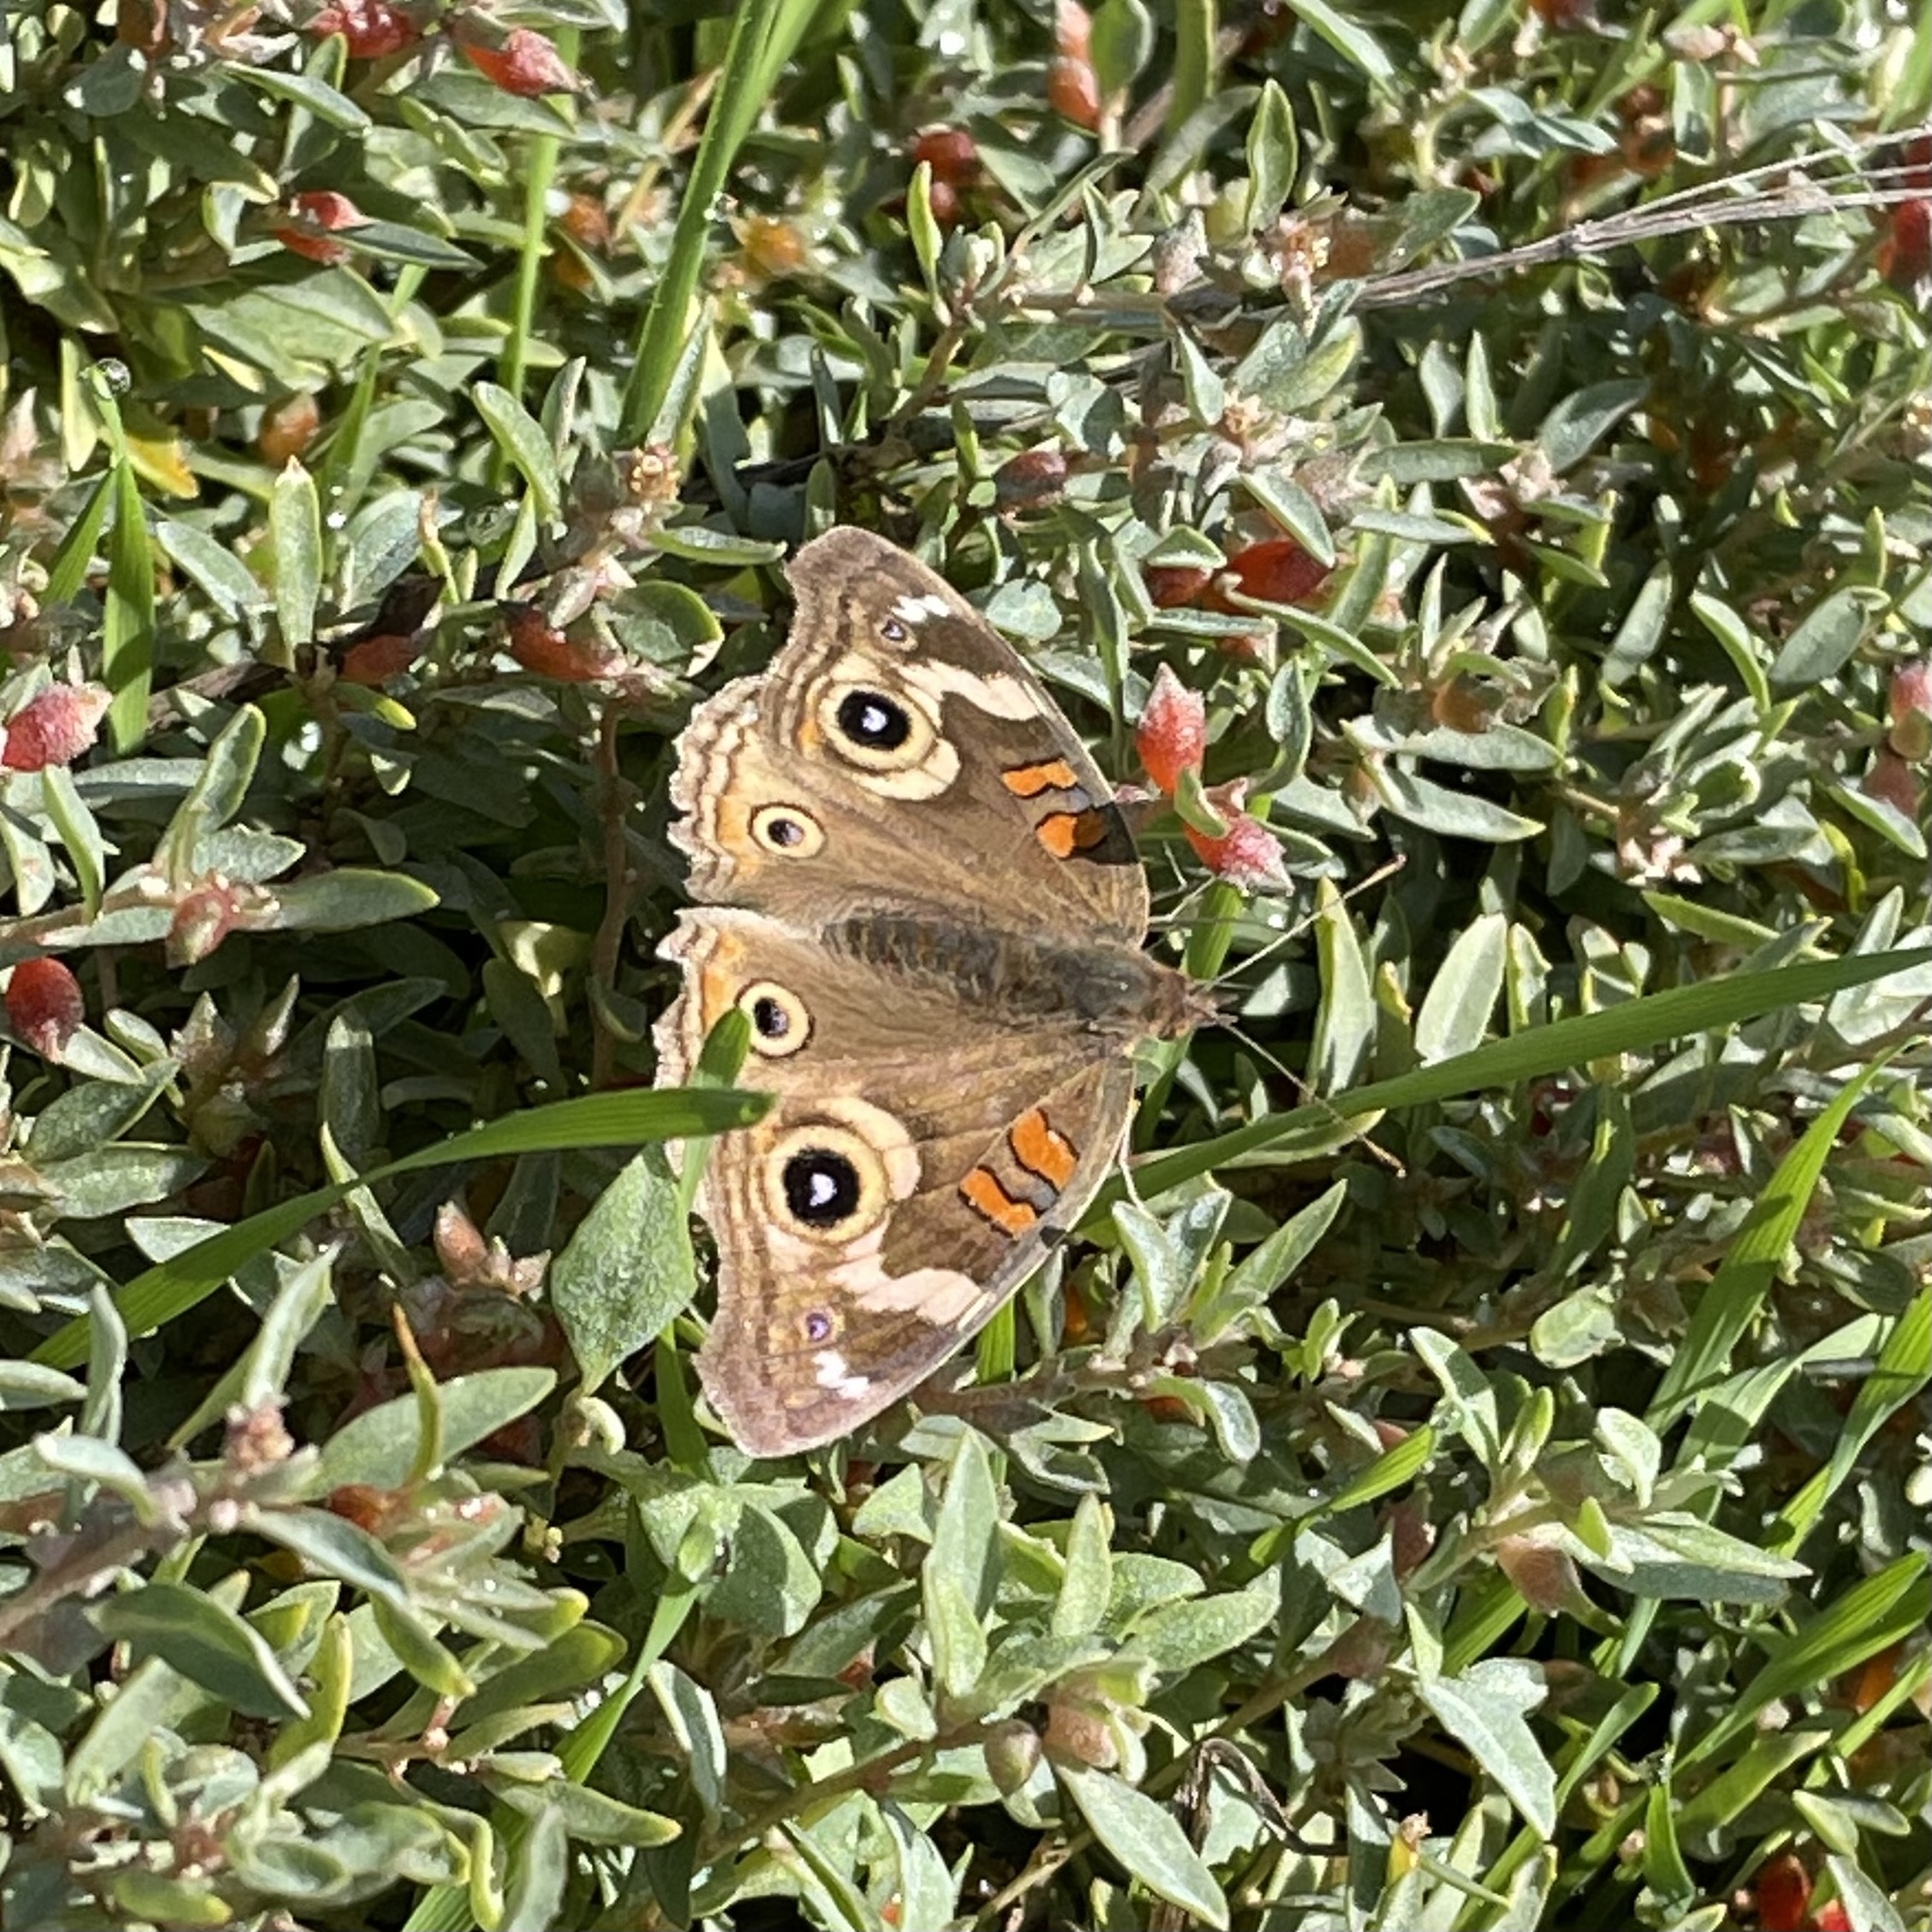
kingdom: Animalia
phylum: Arthropoda
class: Insecta
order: Lepidoptera
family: Nymphalidae
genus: Junonia
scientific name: Junonia grisea
